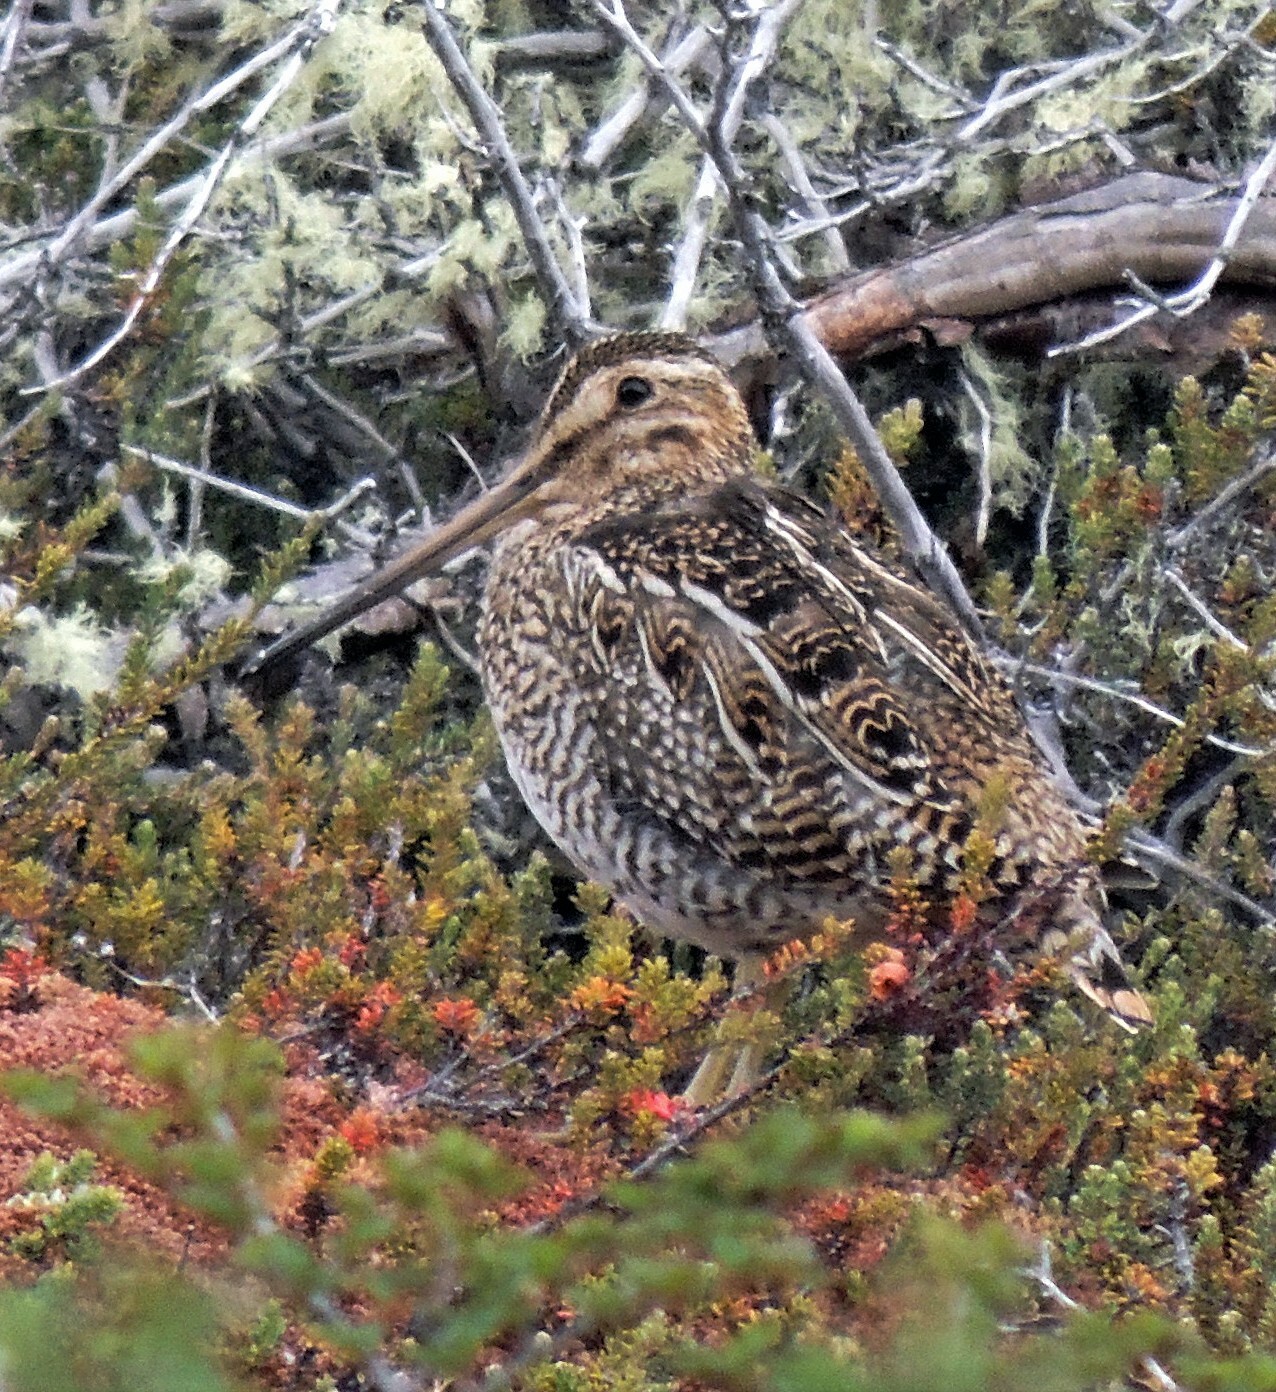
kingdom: Animalia
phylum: Chordata
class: Aves
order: Charadriiformes
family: Scolopacidae
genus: Gallinago
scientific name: Gallinago magellanica
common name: Magellanic snipe
